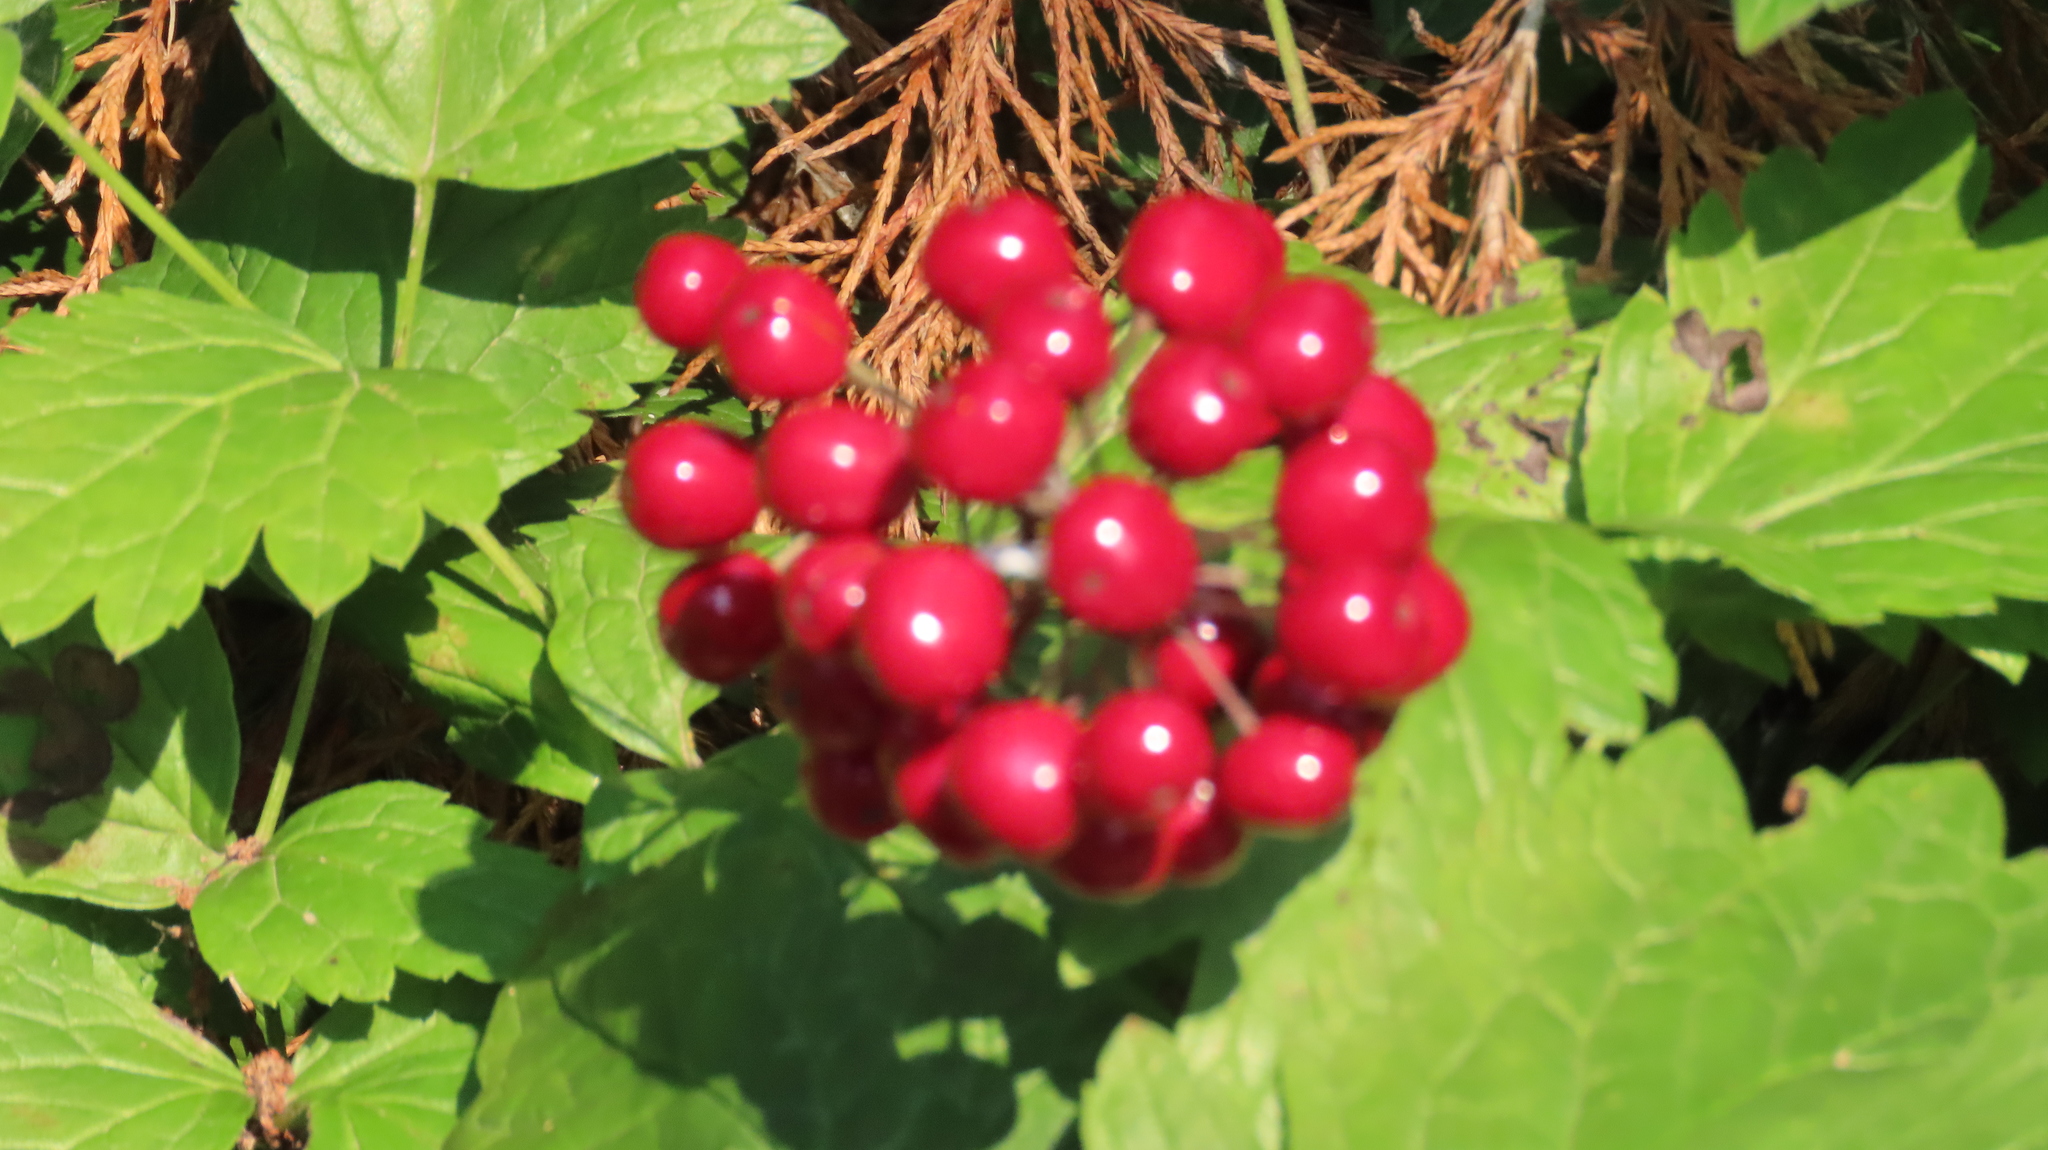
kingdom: Plantae
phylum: Tracheophyta
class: Magnoliopsida
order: Ranunculales
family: Ranunculaceae
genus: Actaea
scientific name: Actaea rubra
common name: Red baneberry
